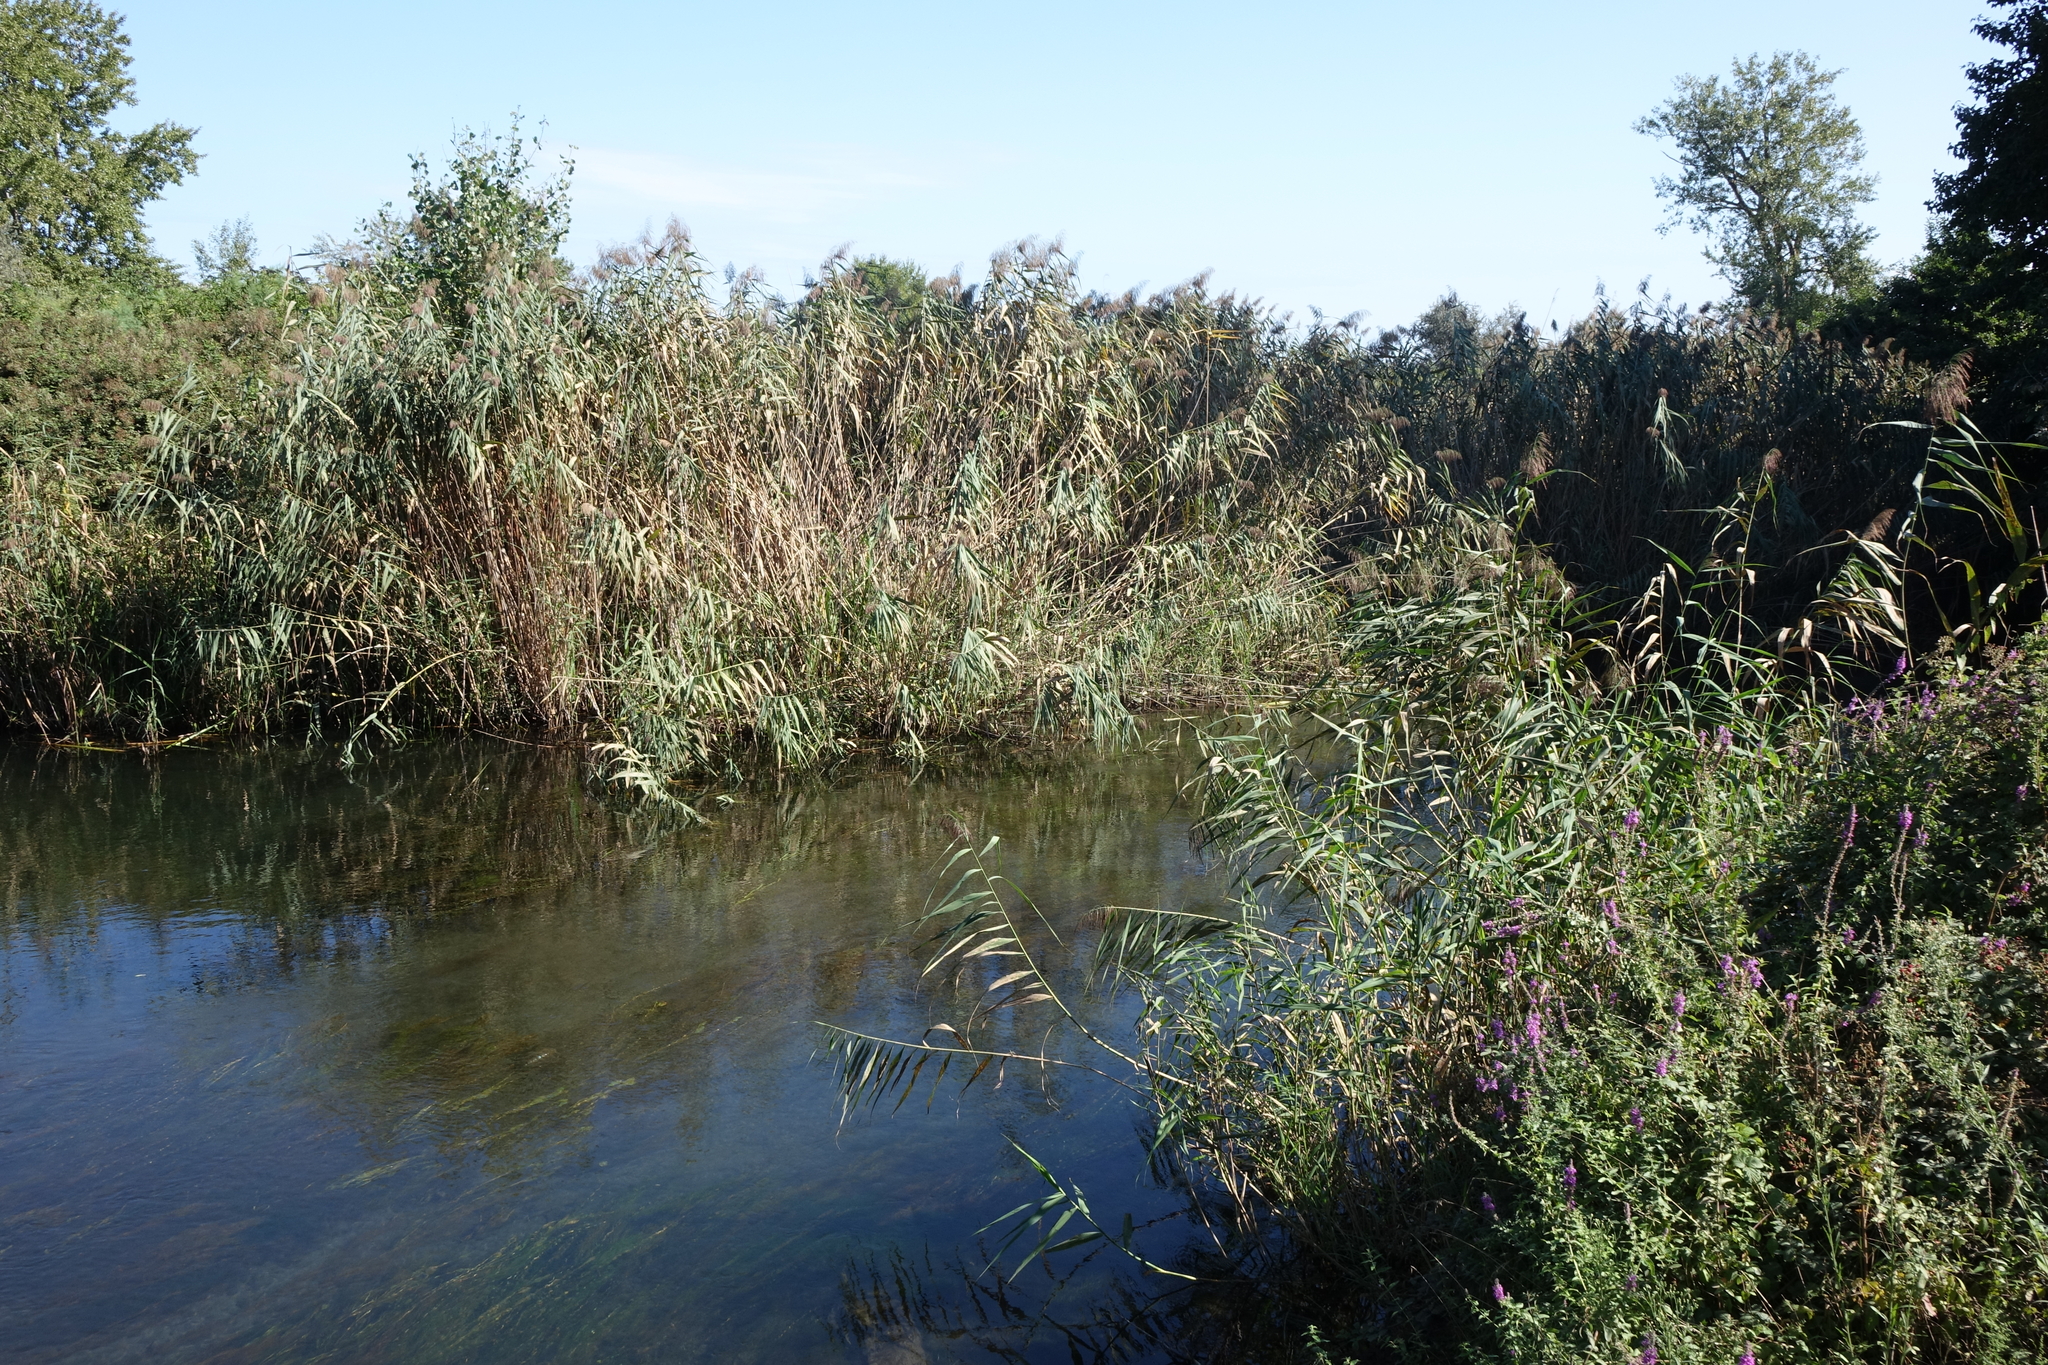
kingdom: Plantae
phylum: Tracheophyta
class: Liliopsida
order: Poales
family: Poaceae
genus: Phragmites
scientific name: Phragmites australis
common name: Common reed
